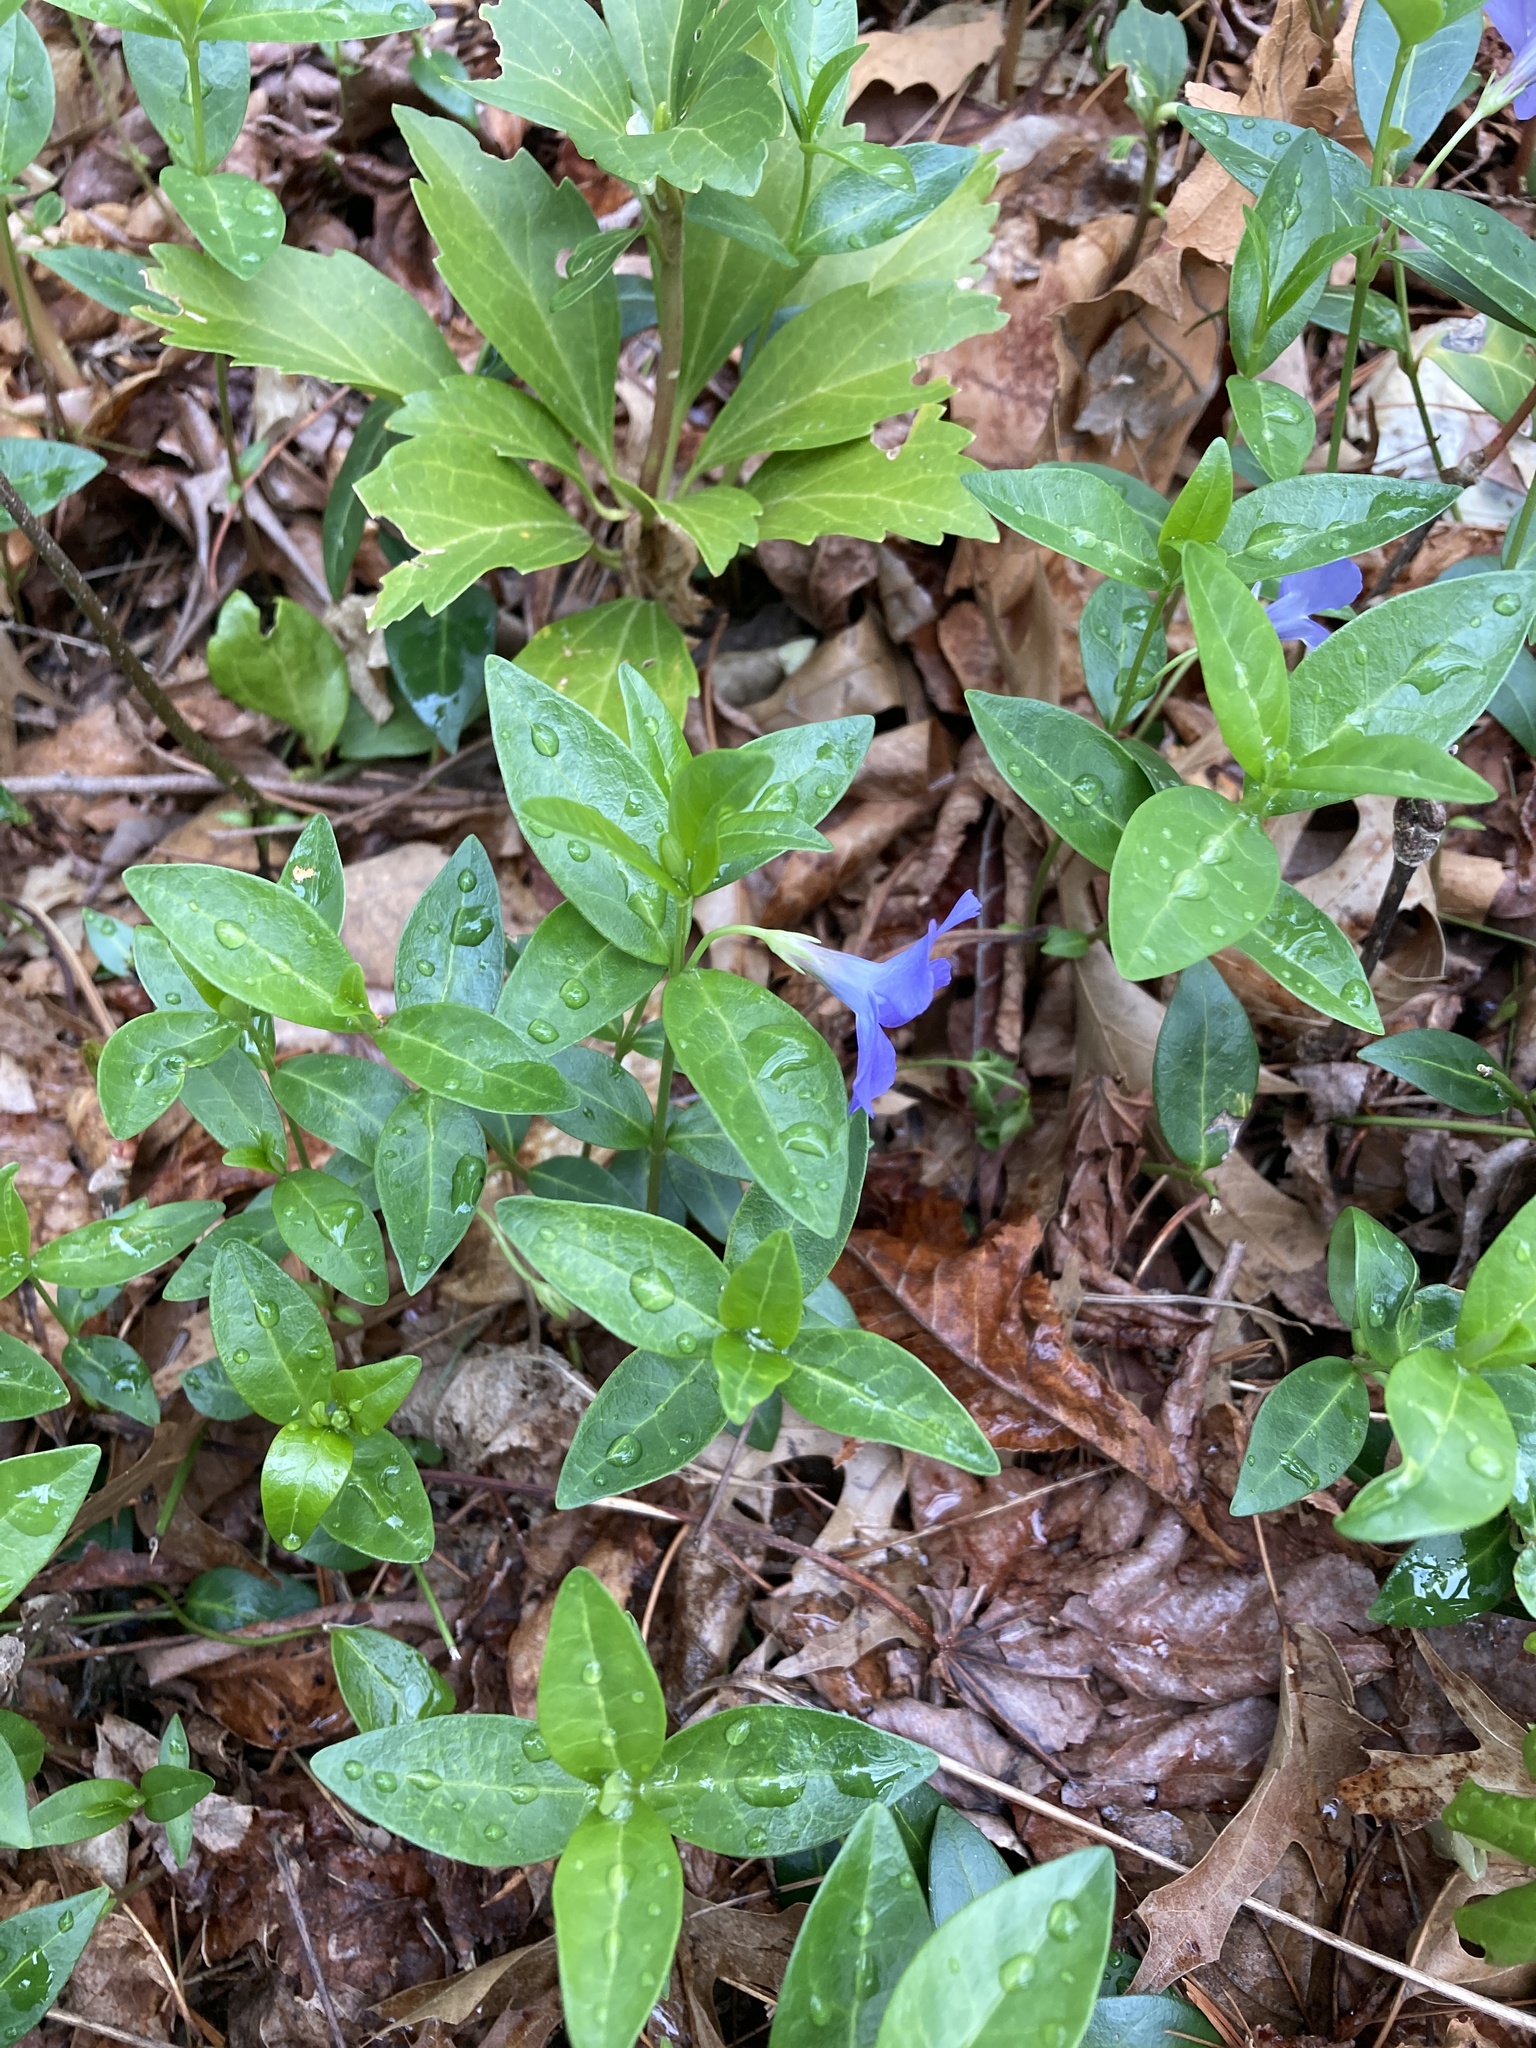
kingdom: Plantae
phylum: Tracheophyta
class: Magnoliopsida
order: Gentianales
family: Apocynaceae
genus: Vinca
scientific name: Vinca minor
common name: Lesser periwinkle
